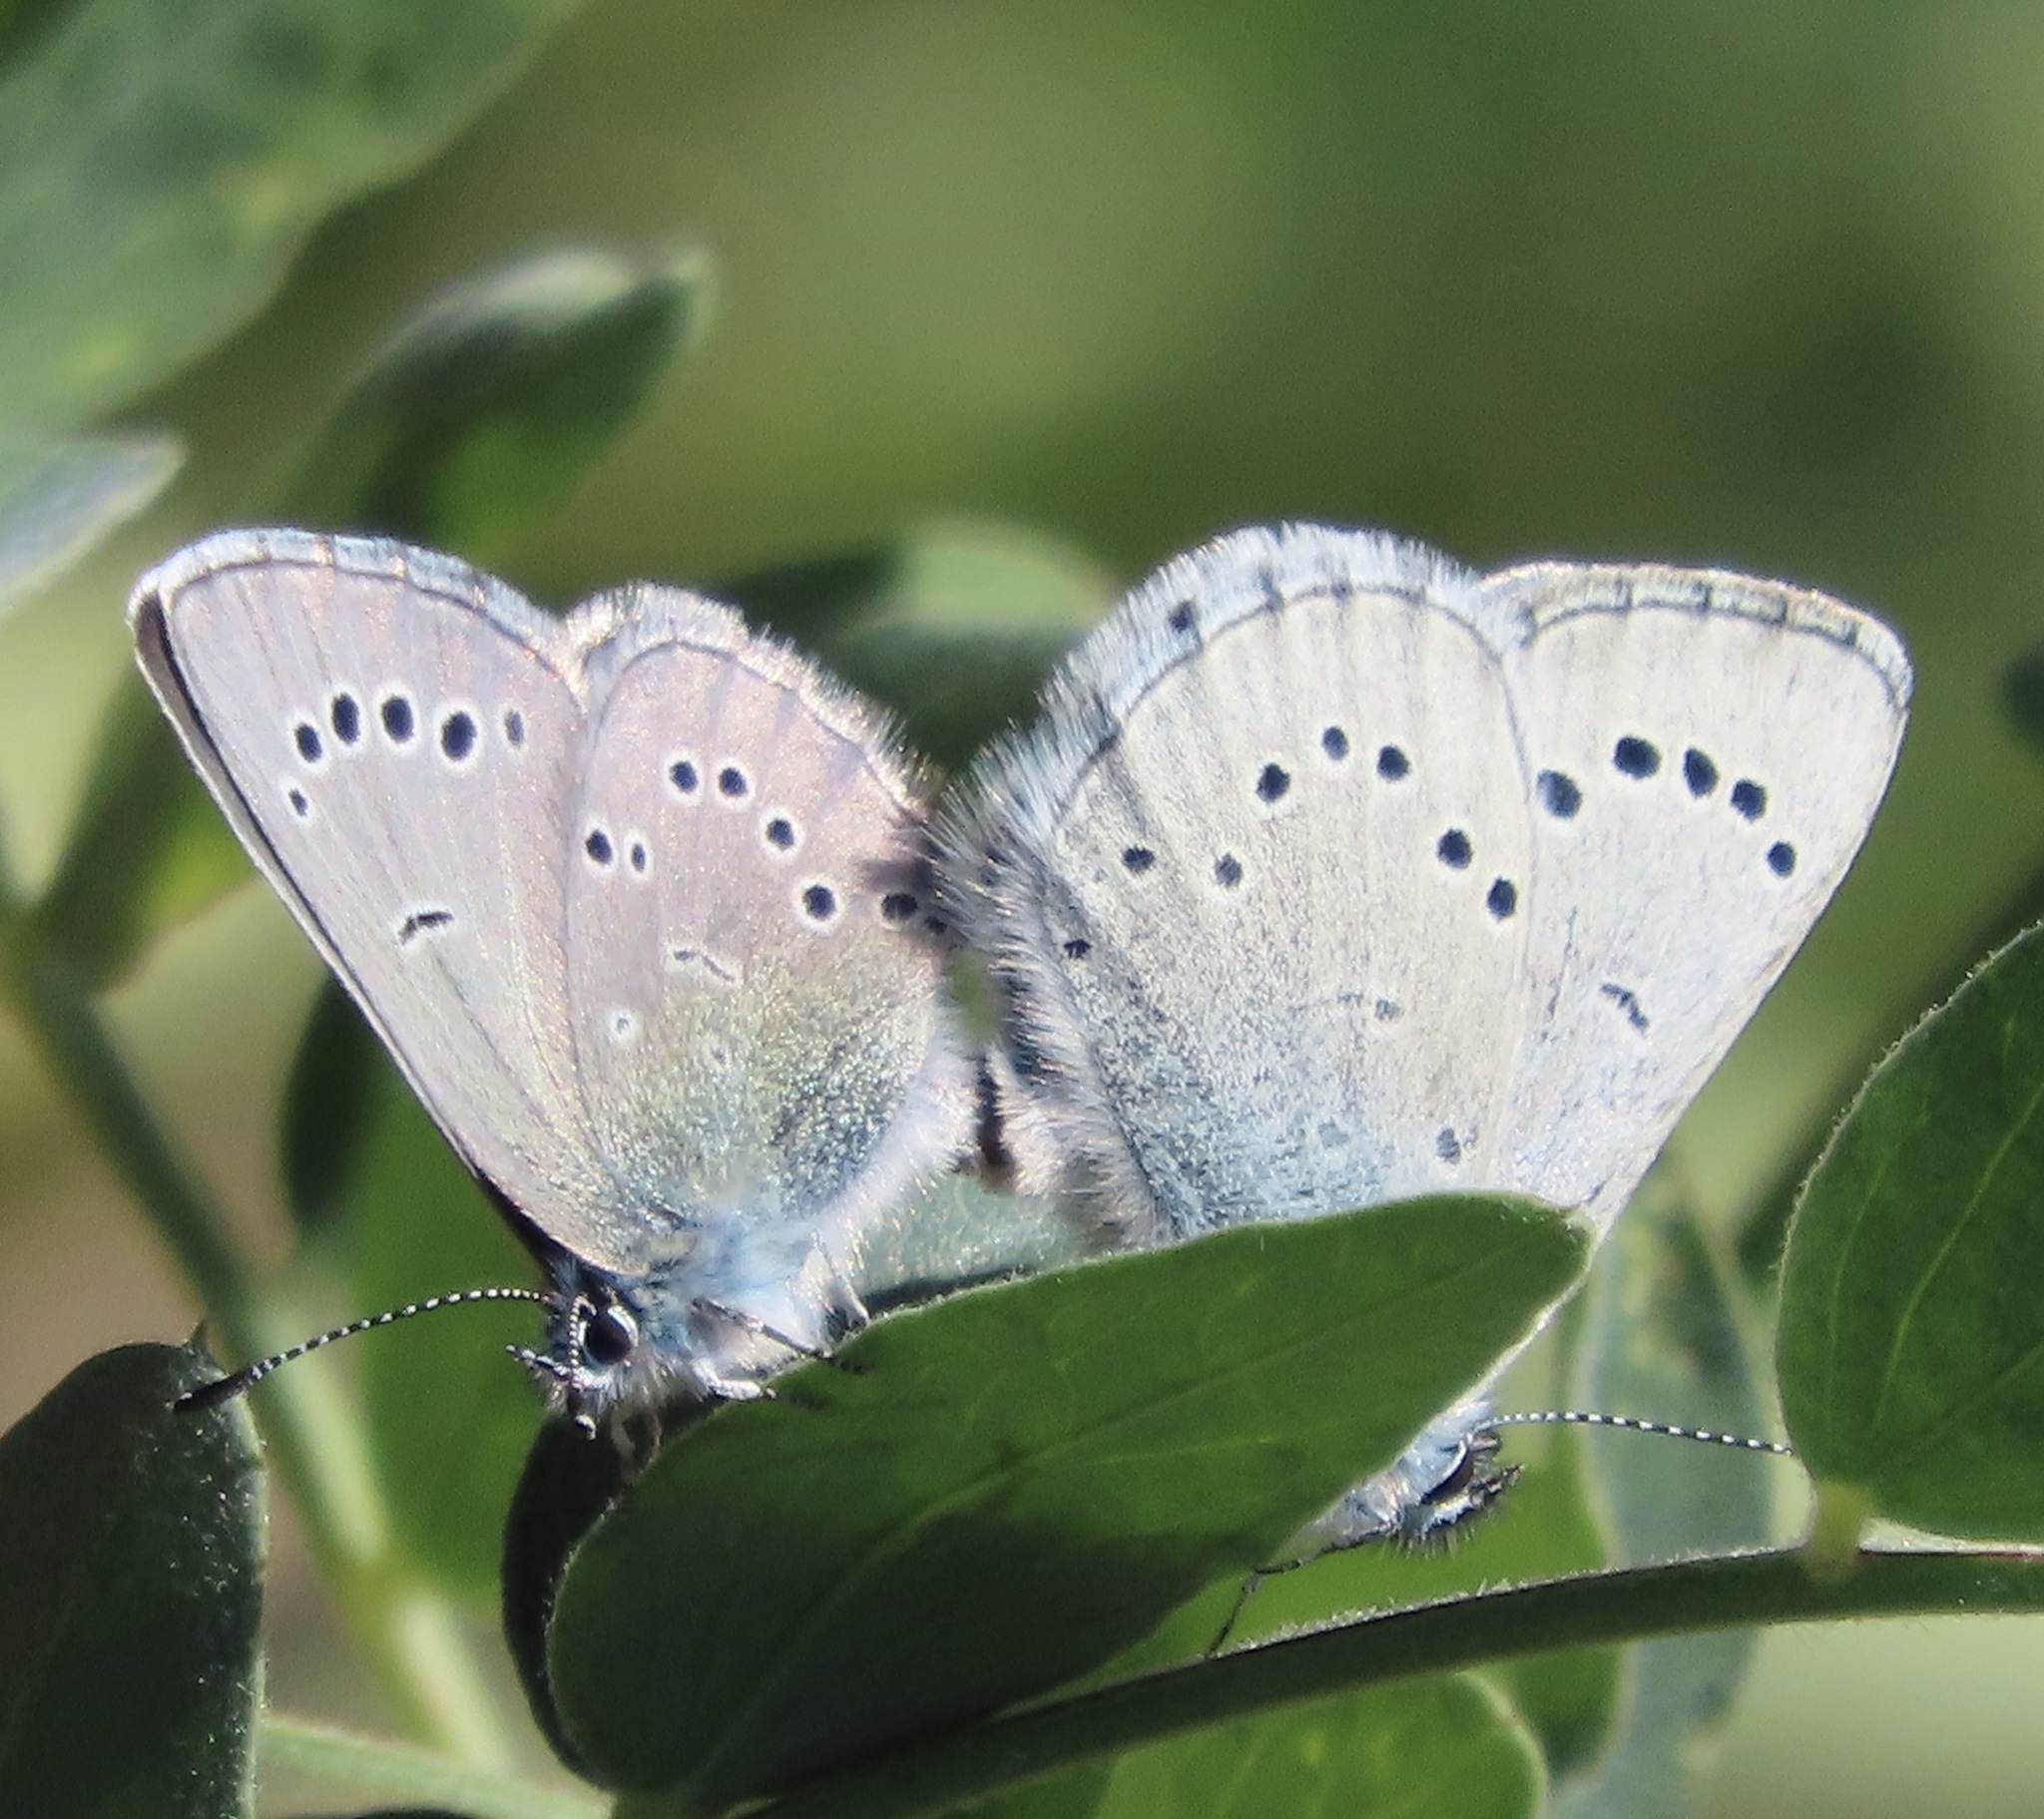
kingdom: Animalia
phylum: Arthropoda
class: Insecta
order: Lepidoptera
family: Lycaenidae
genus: Glaucopsyche
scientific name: Glaucopsyche lygdamus
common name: Silvery blue
